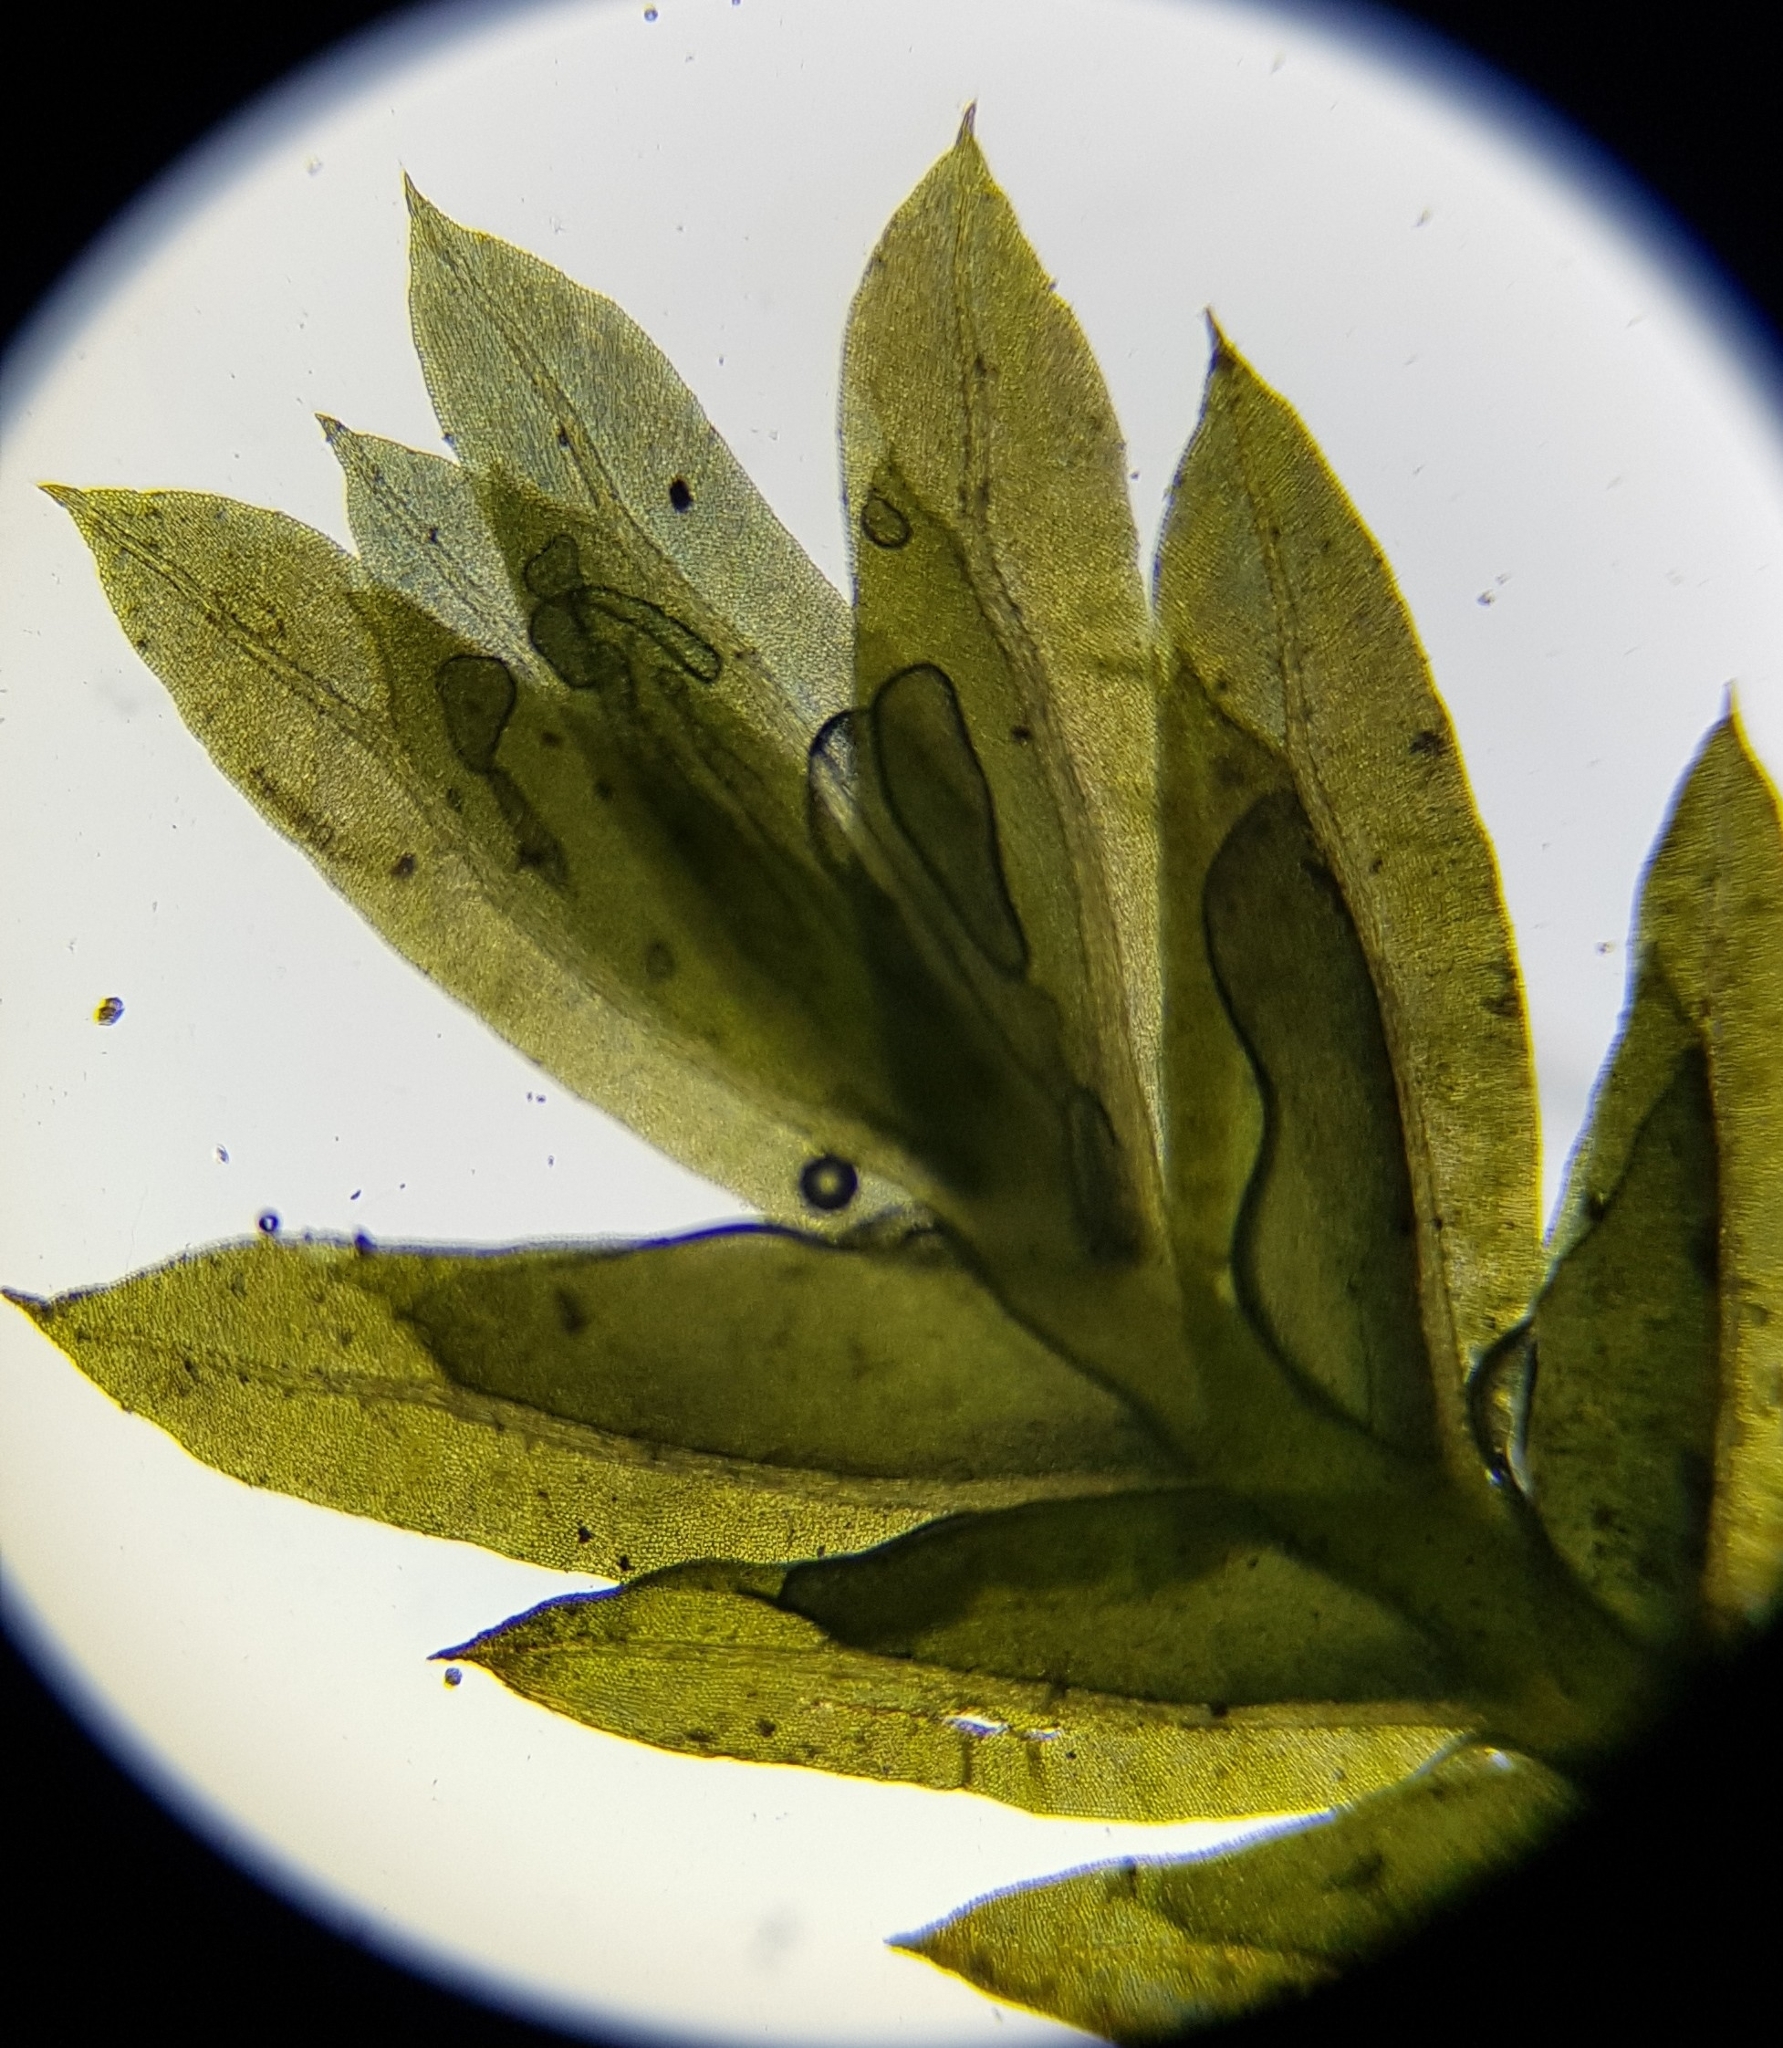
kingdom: Plantae
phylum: Bryophyta
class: Bryopsida
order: Dicranales
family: Fissidentaceae
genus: Fissidens
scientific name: Fissidens taxifolius
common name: Yew-leaved pocket moss
